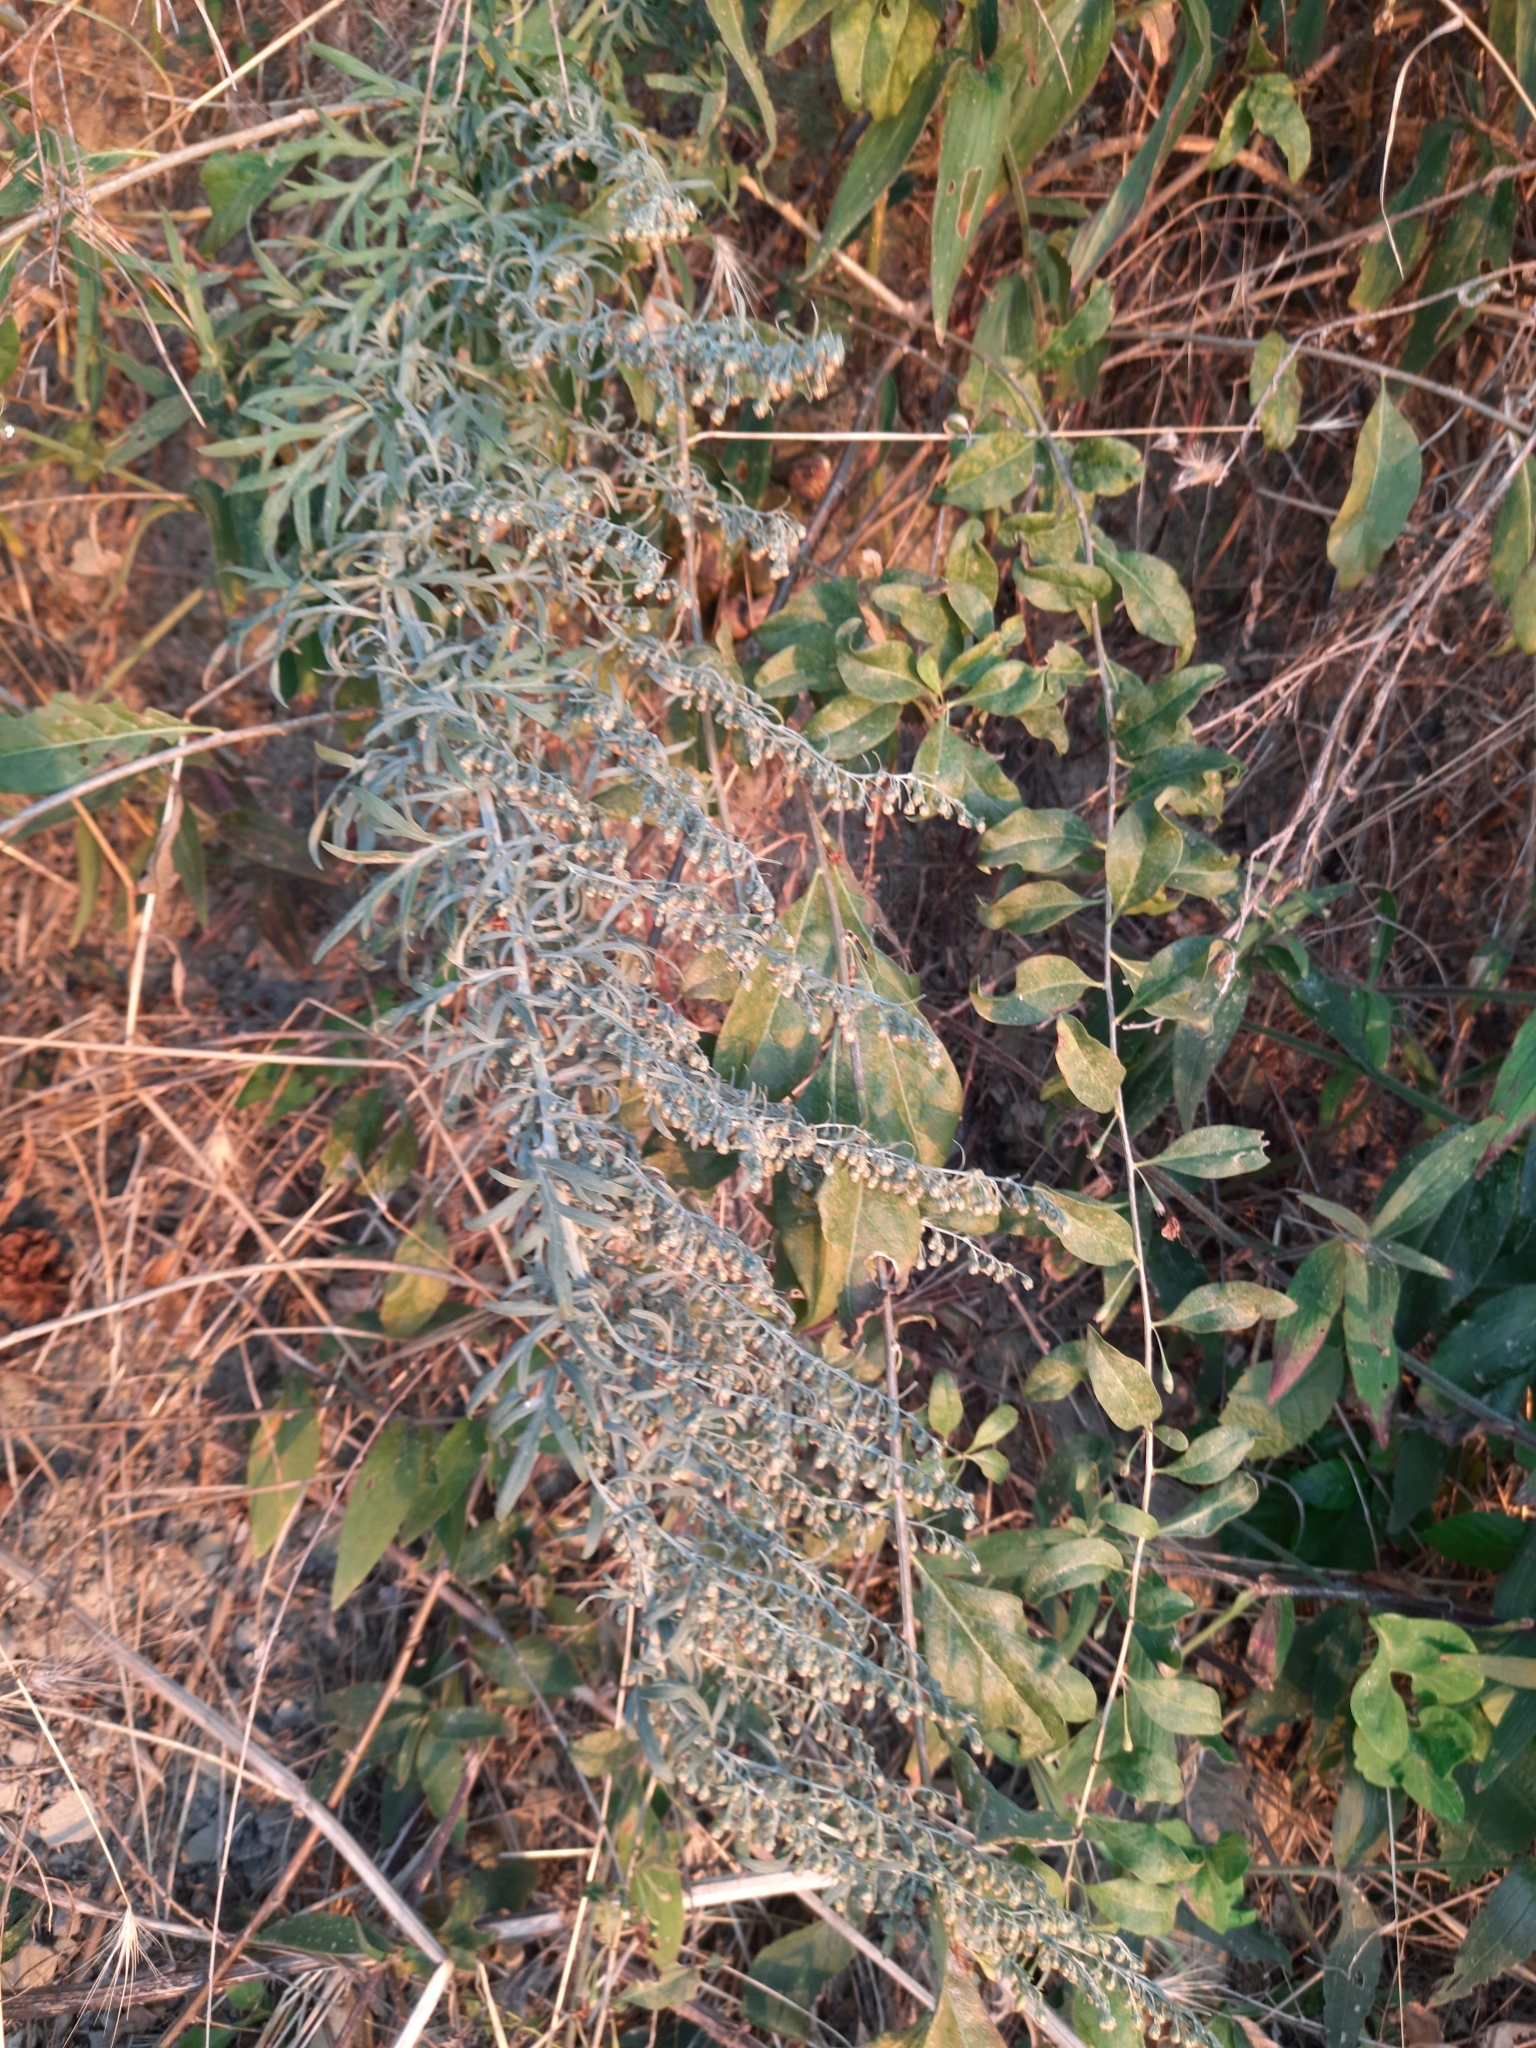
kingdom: Plantae
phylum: Tracheophyta
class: Magnoliopsida
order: Asterales
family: Asteraceae
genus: Artemisia
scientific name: Artemisia absinthium
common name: Wormwood
